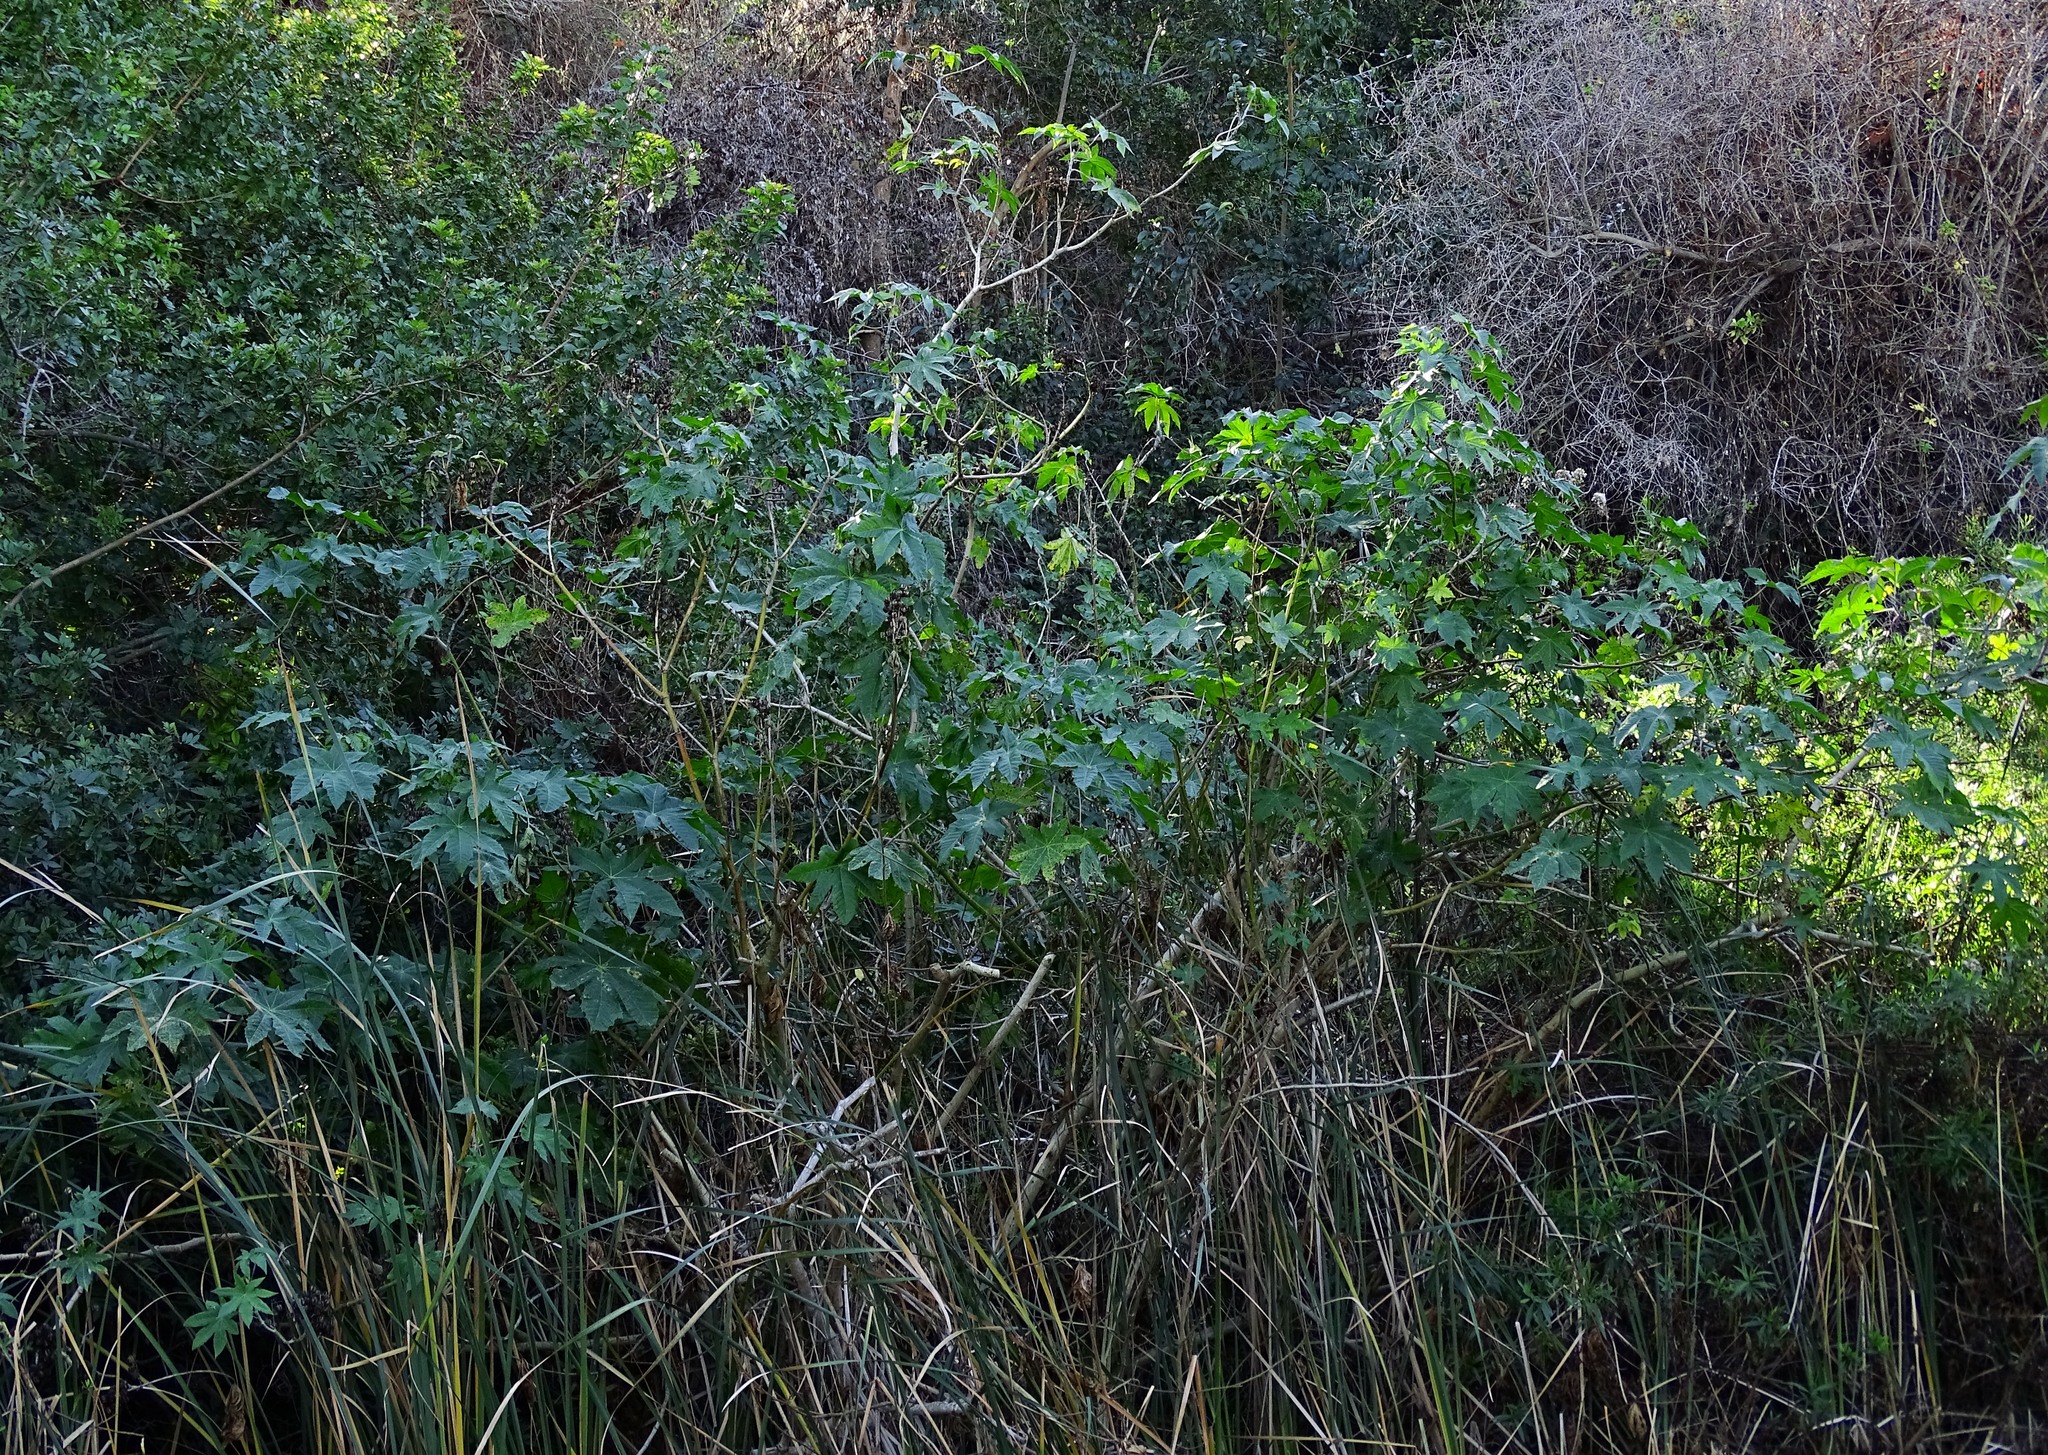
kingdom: Plantae
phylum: Tracheophyta
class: Magnoliopsida
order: Malpighiales
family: Euphorbiaceae
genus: Ricinus
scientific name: Ricinus communis
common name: Castor-oil-plant
